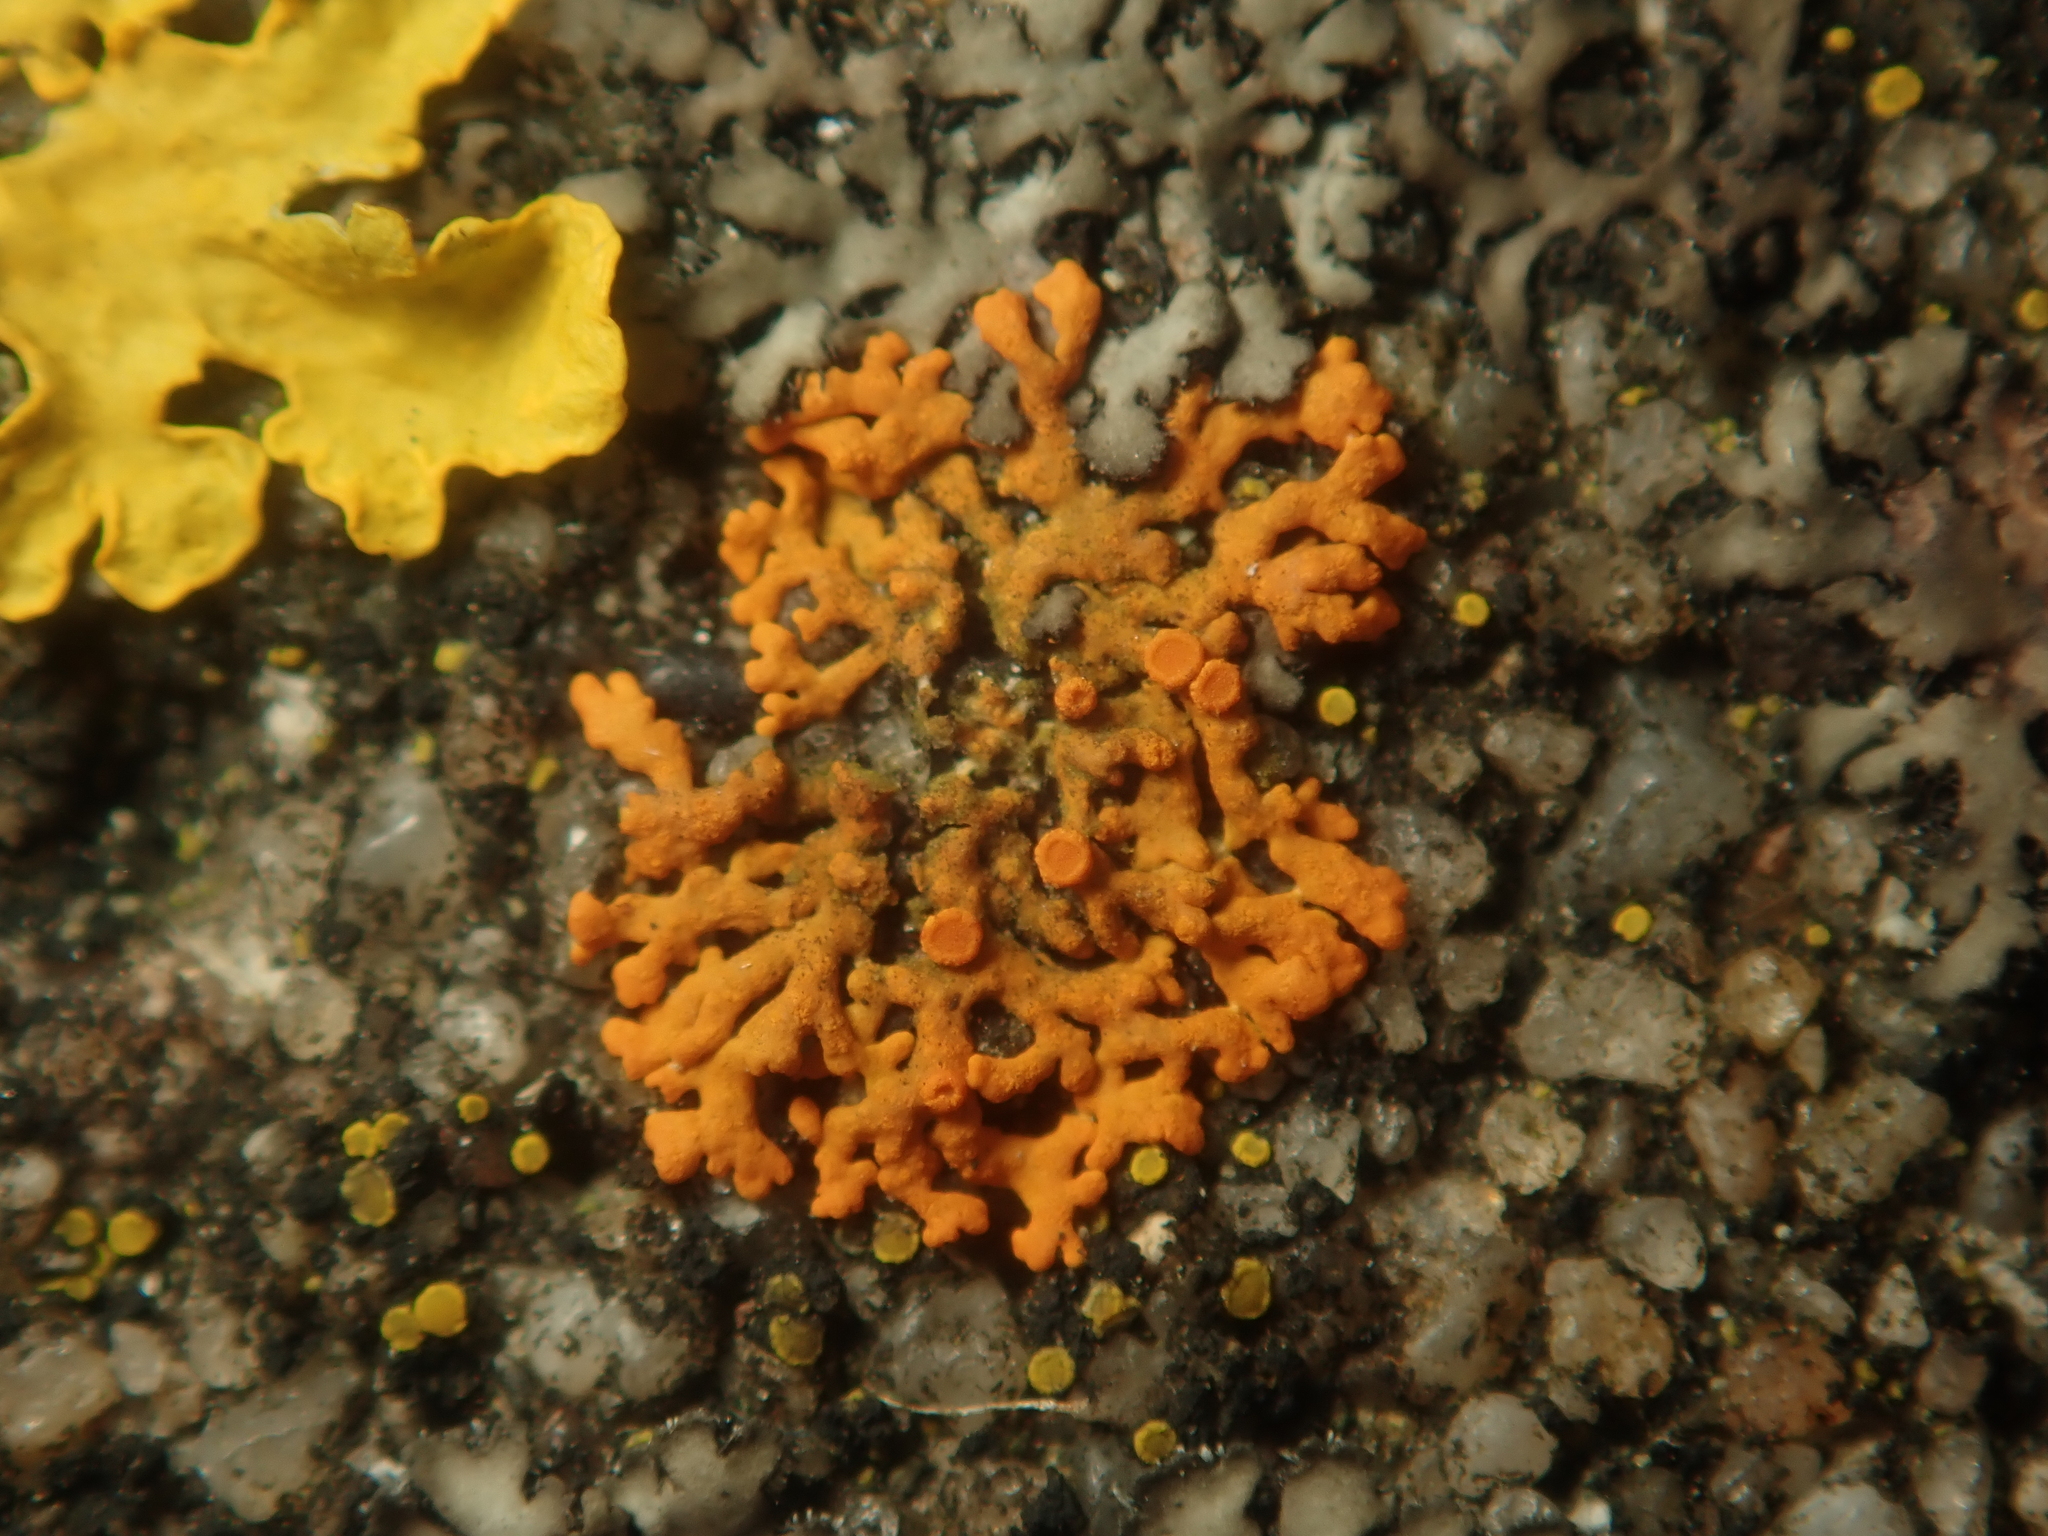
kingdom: Fungi
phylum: Ascomycota
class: Lecanoromycetes
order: Teloschistales
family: Teloschistaceae
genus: Xanthoria
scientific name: Xanthoria elegans
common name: Elegant sunburst lichen
